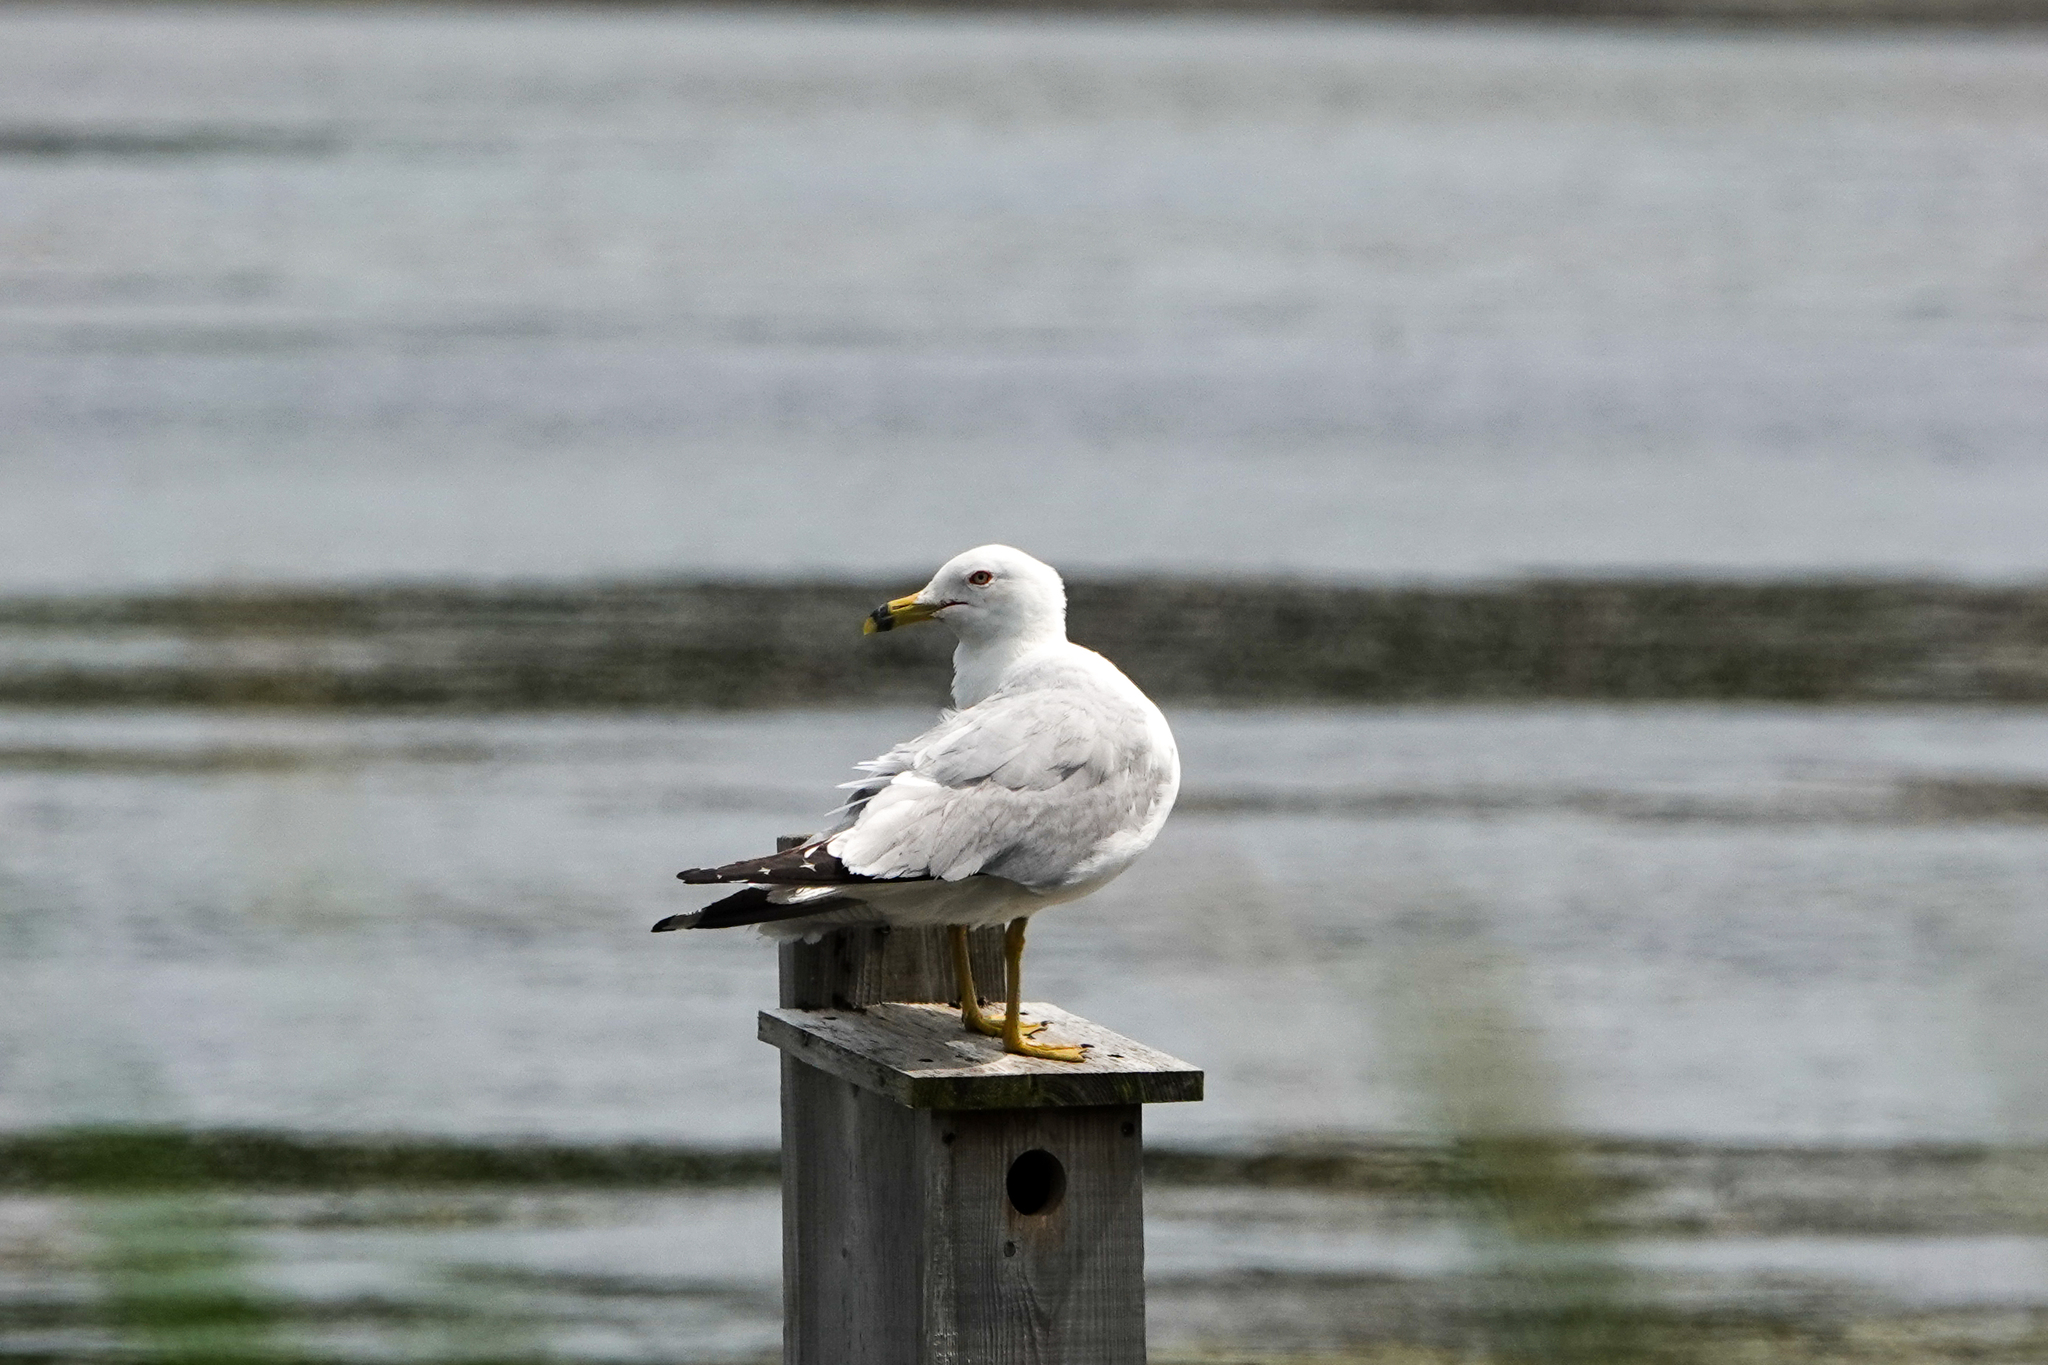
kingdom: Animalia
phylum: Chordata
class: Aves
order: Charadriiformes
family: Laridae
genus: Larus
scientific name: Larus delawarensis
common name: Ring-billed gull
